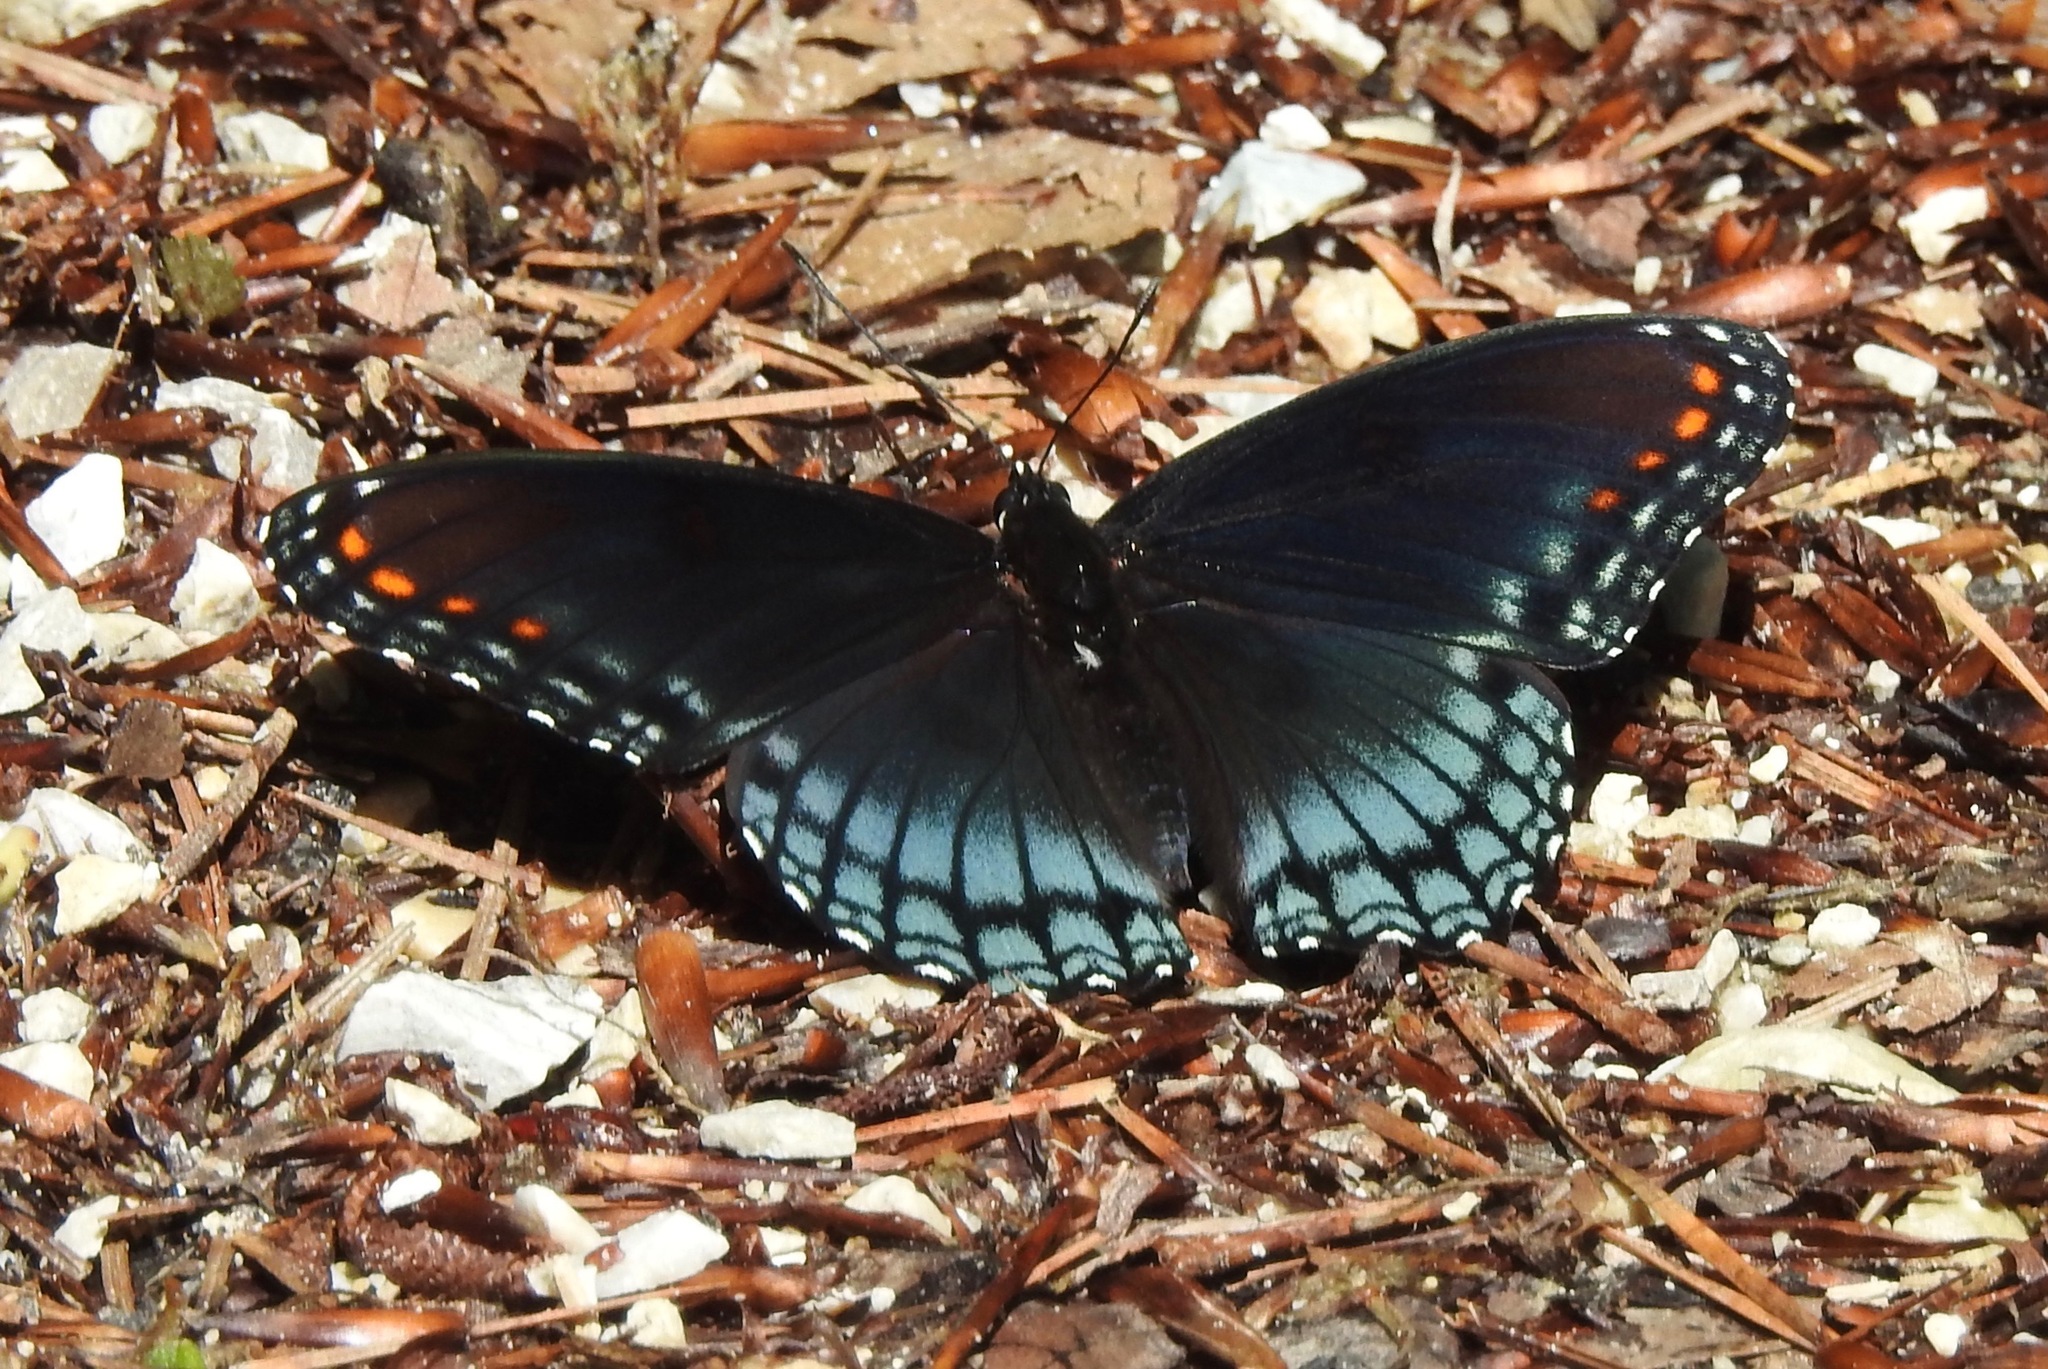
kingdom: Animalia
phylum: Arthropoda
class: Insecta
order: Lepidoptera
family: Nymphalidae
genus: Limenitis
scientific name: Limenitis astyanax
